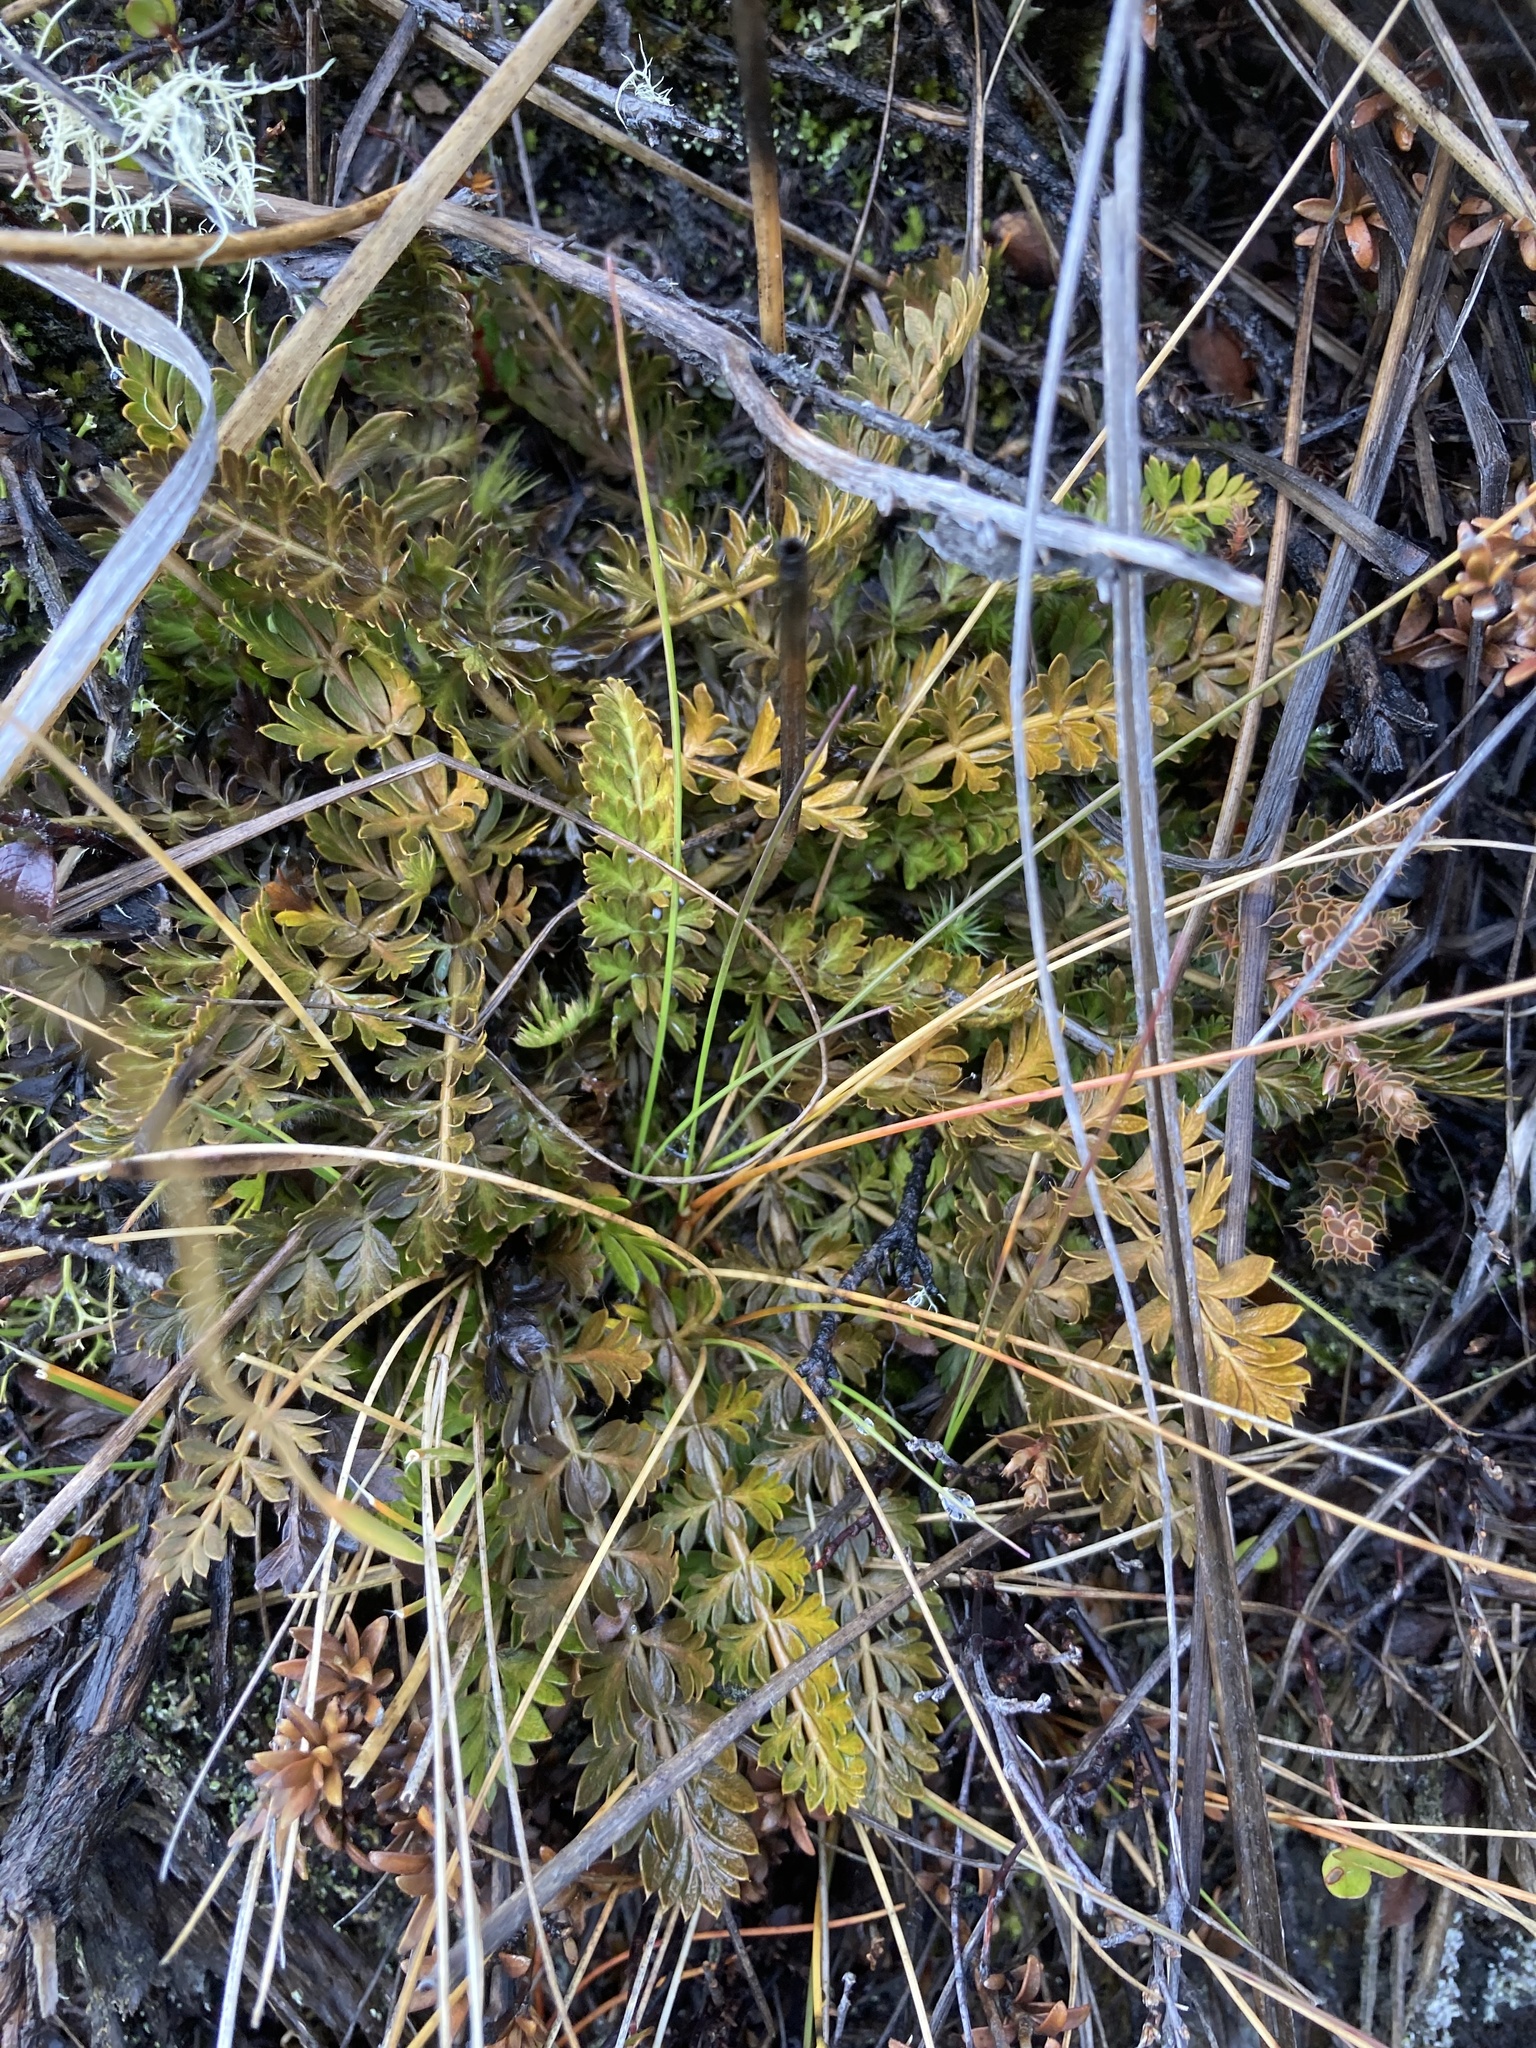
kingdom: Plantae
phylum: Tracheophyta
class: Magnoliopsida
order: Apiales
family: Apiaceae
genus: Anisotome
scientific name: Anisotome flexuosa
